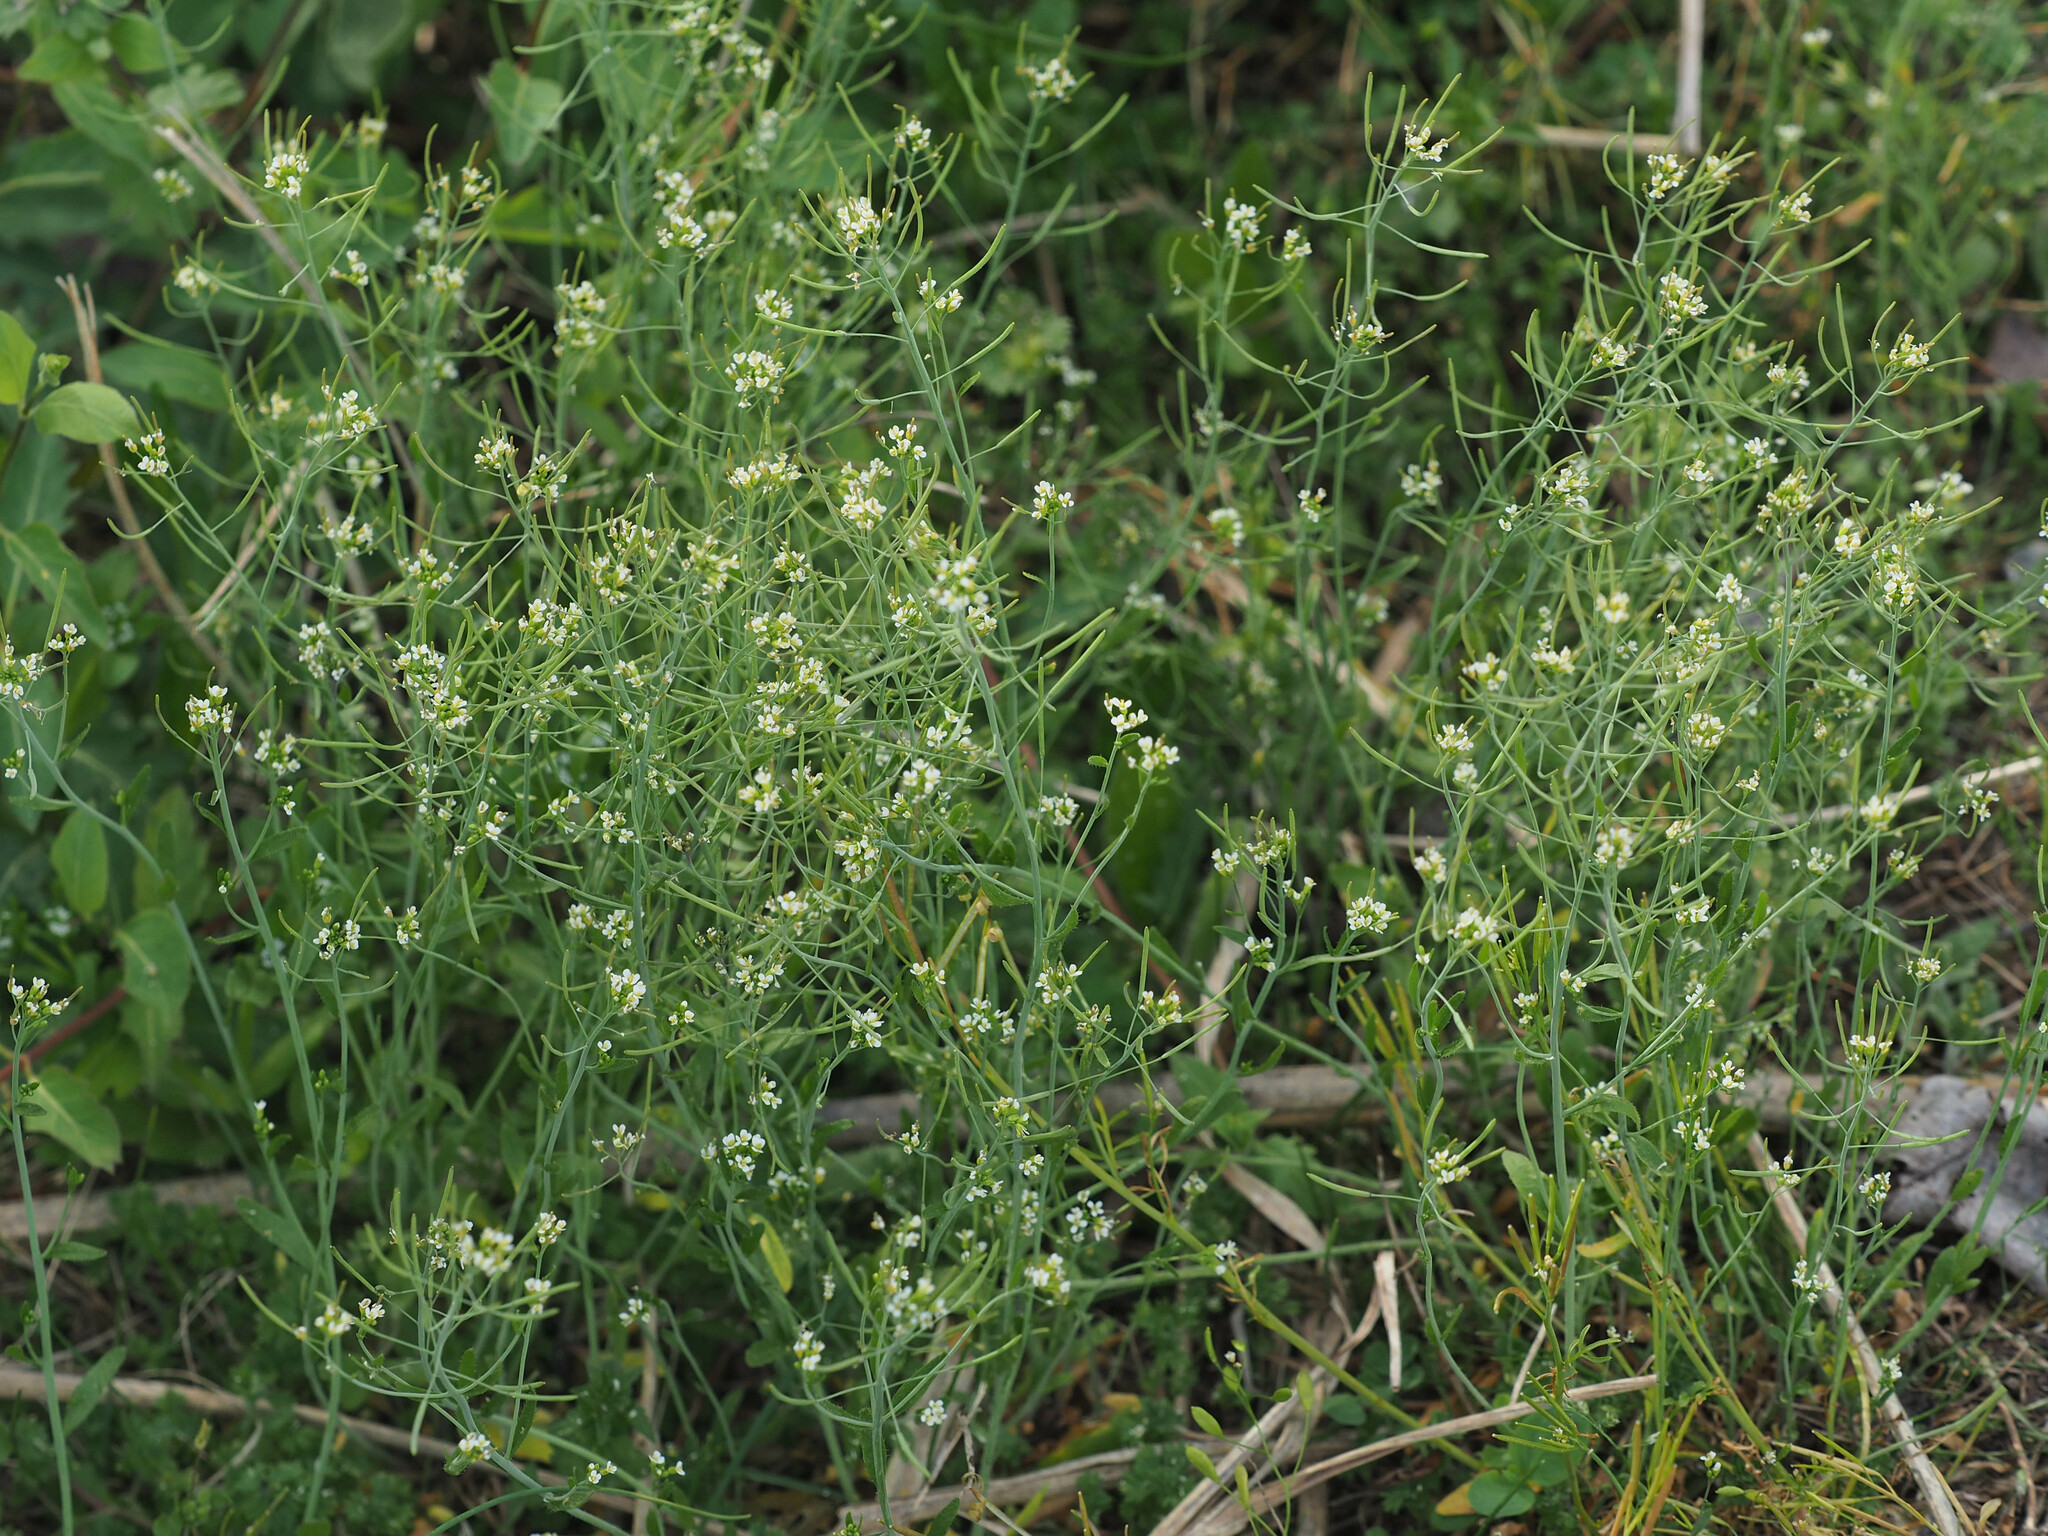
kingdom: Plantae
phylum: Tracheophyta
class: Magnoliopsida
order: Brassicales
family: Brassicaceae
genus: Arabidopsis
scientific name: Arabidopsis thaliana
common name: Thale cress
